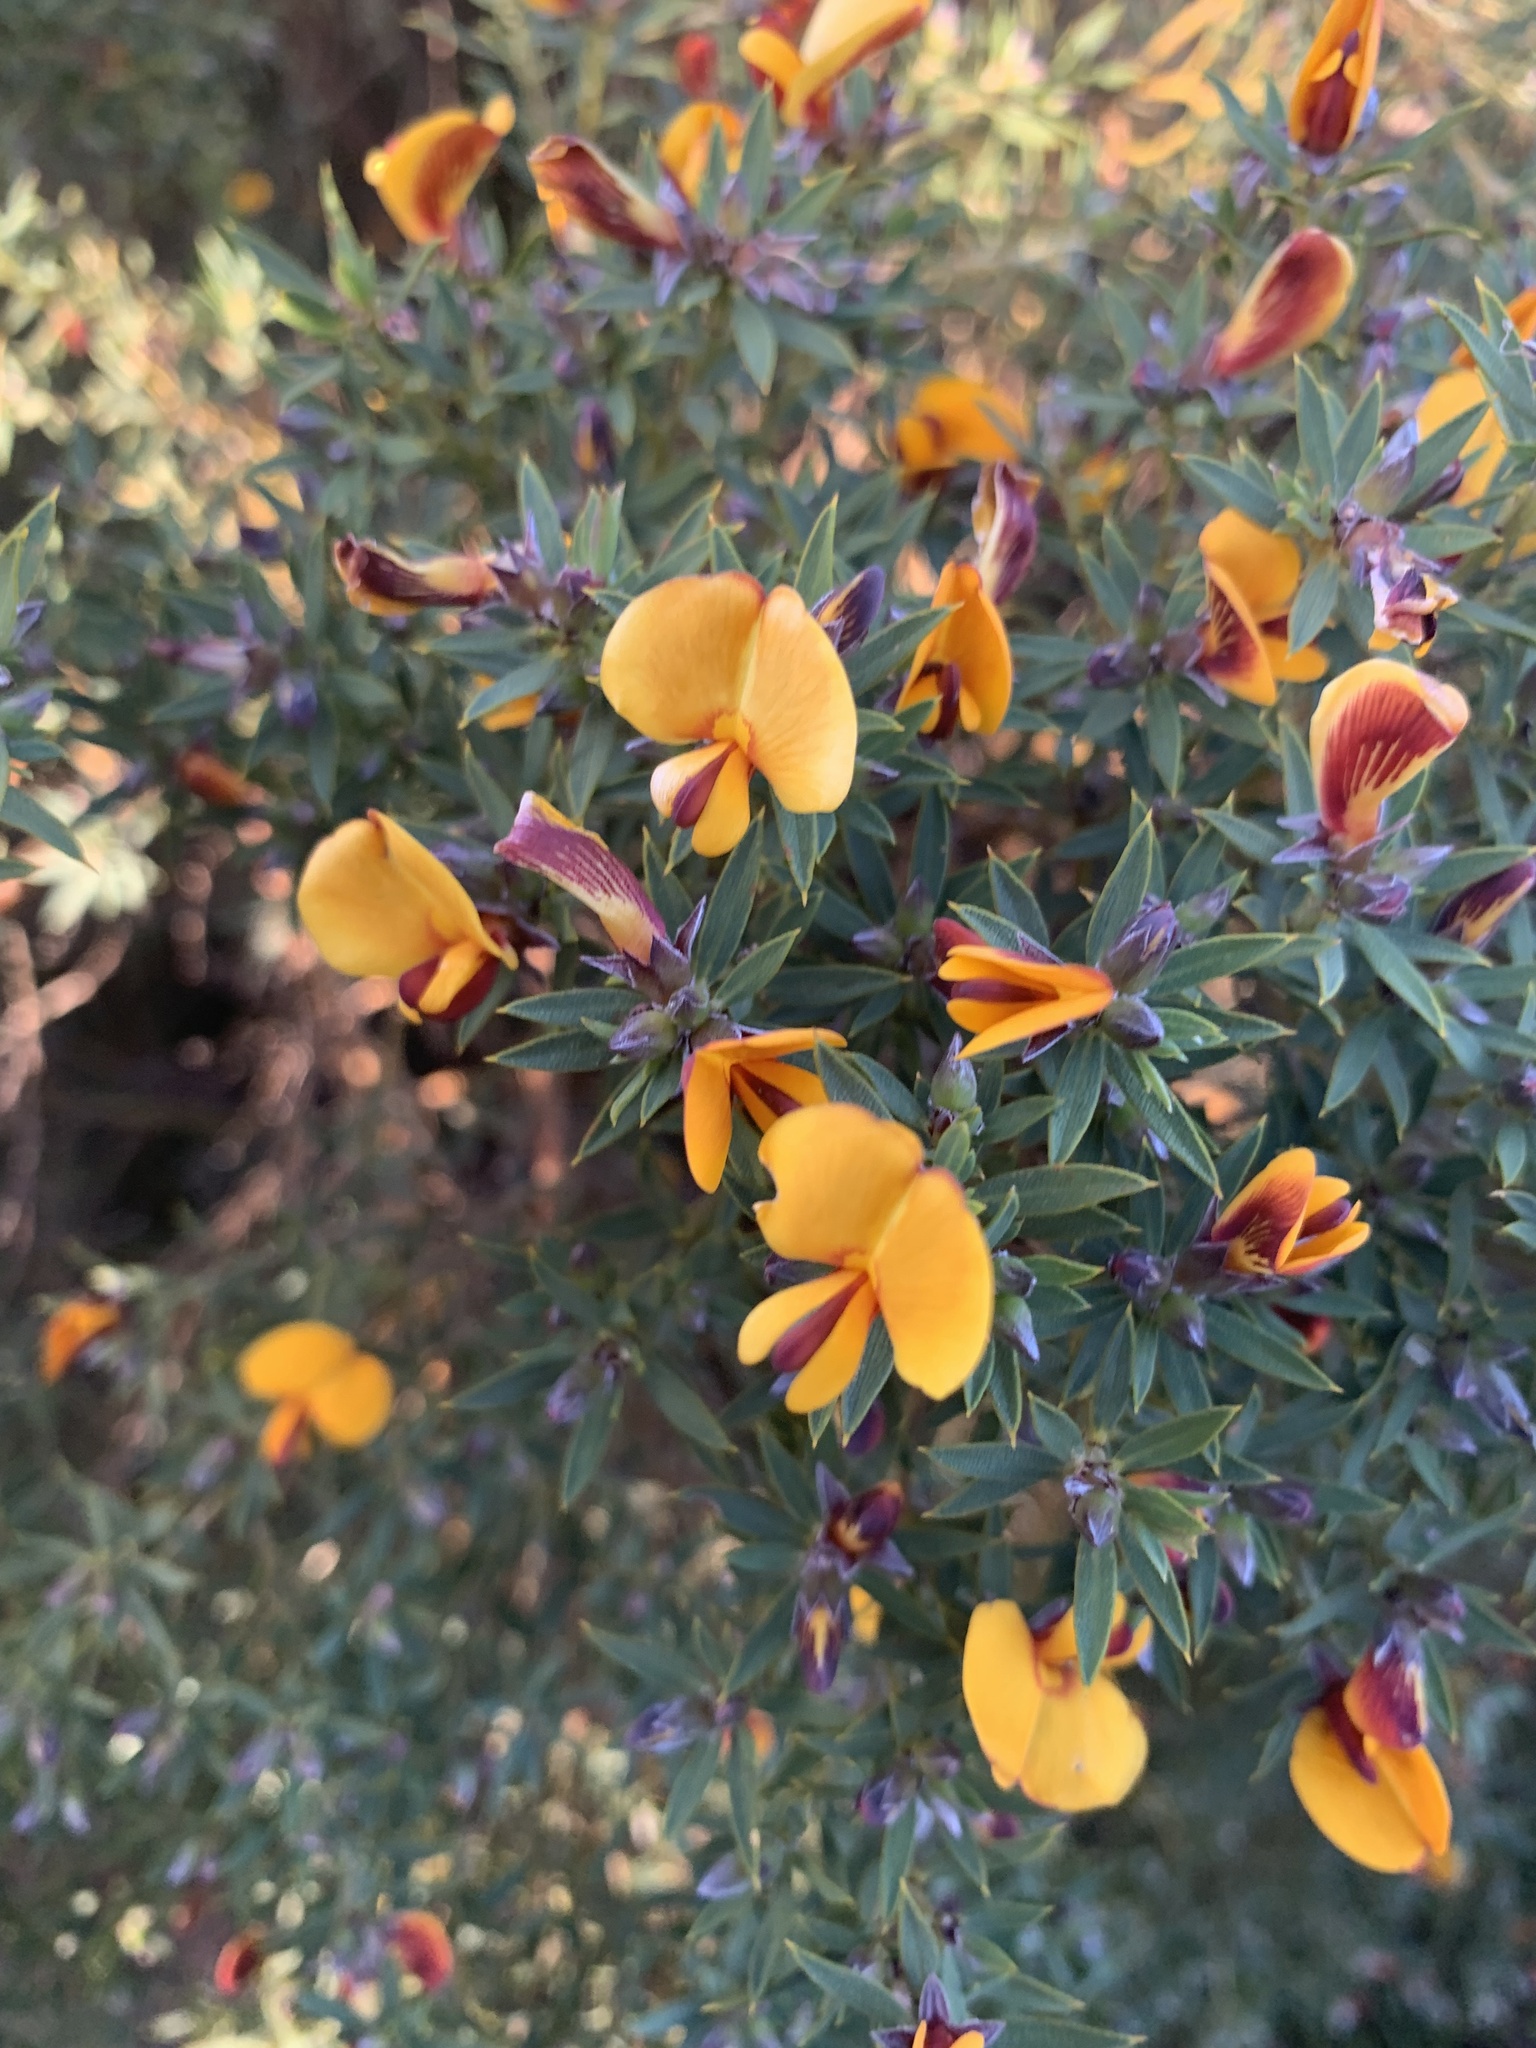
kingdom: Plantae
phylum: Tracheophyta
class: Magnoliopsida
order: Fabales
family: Fabaceae
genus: Pultenaea
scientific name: Pultenaea reticulata
